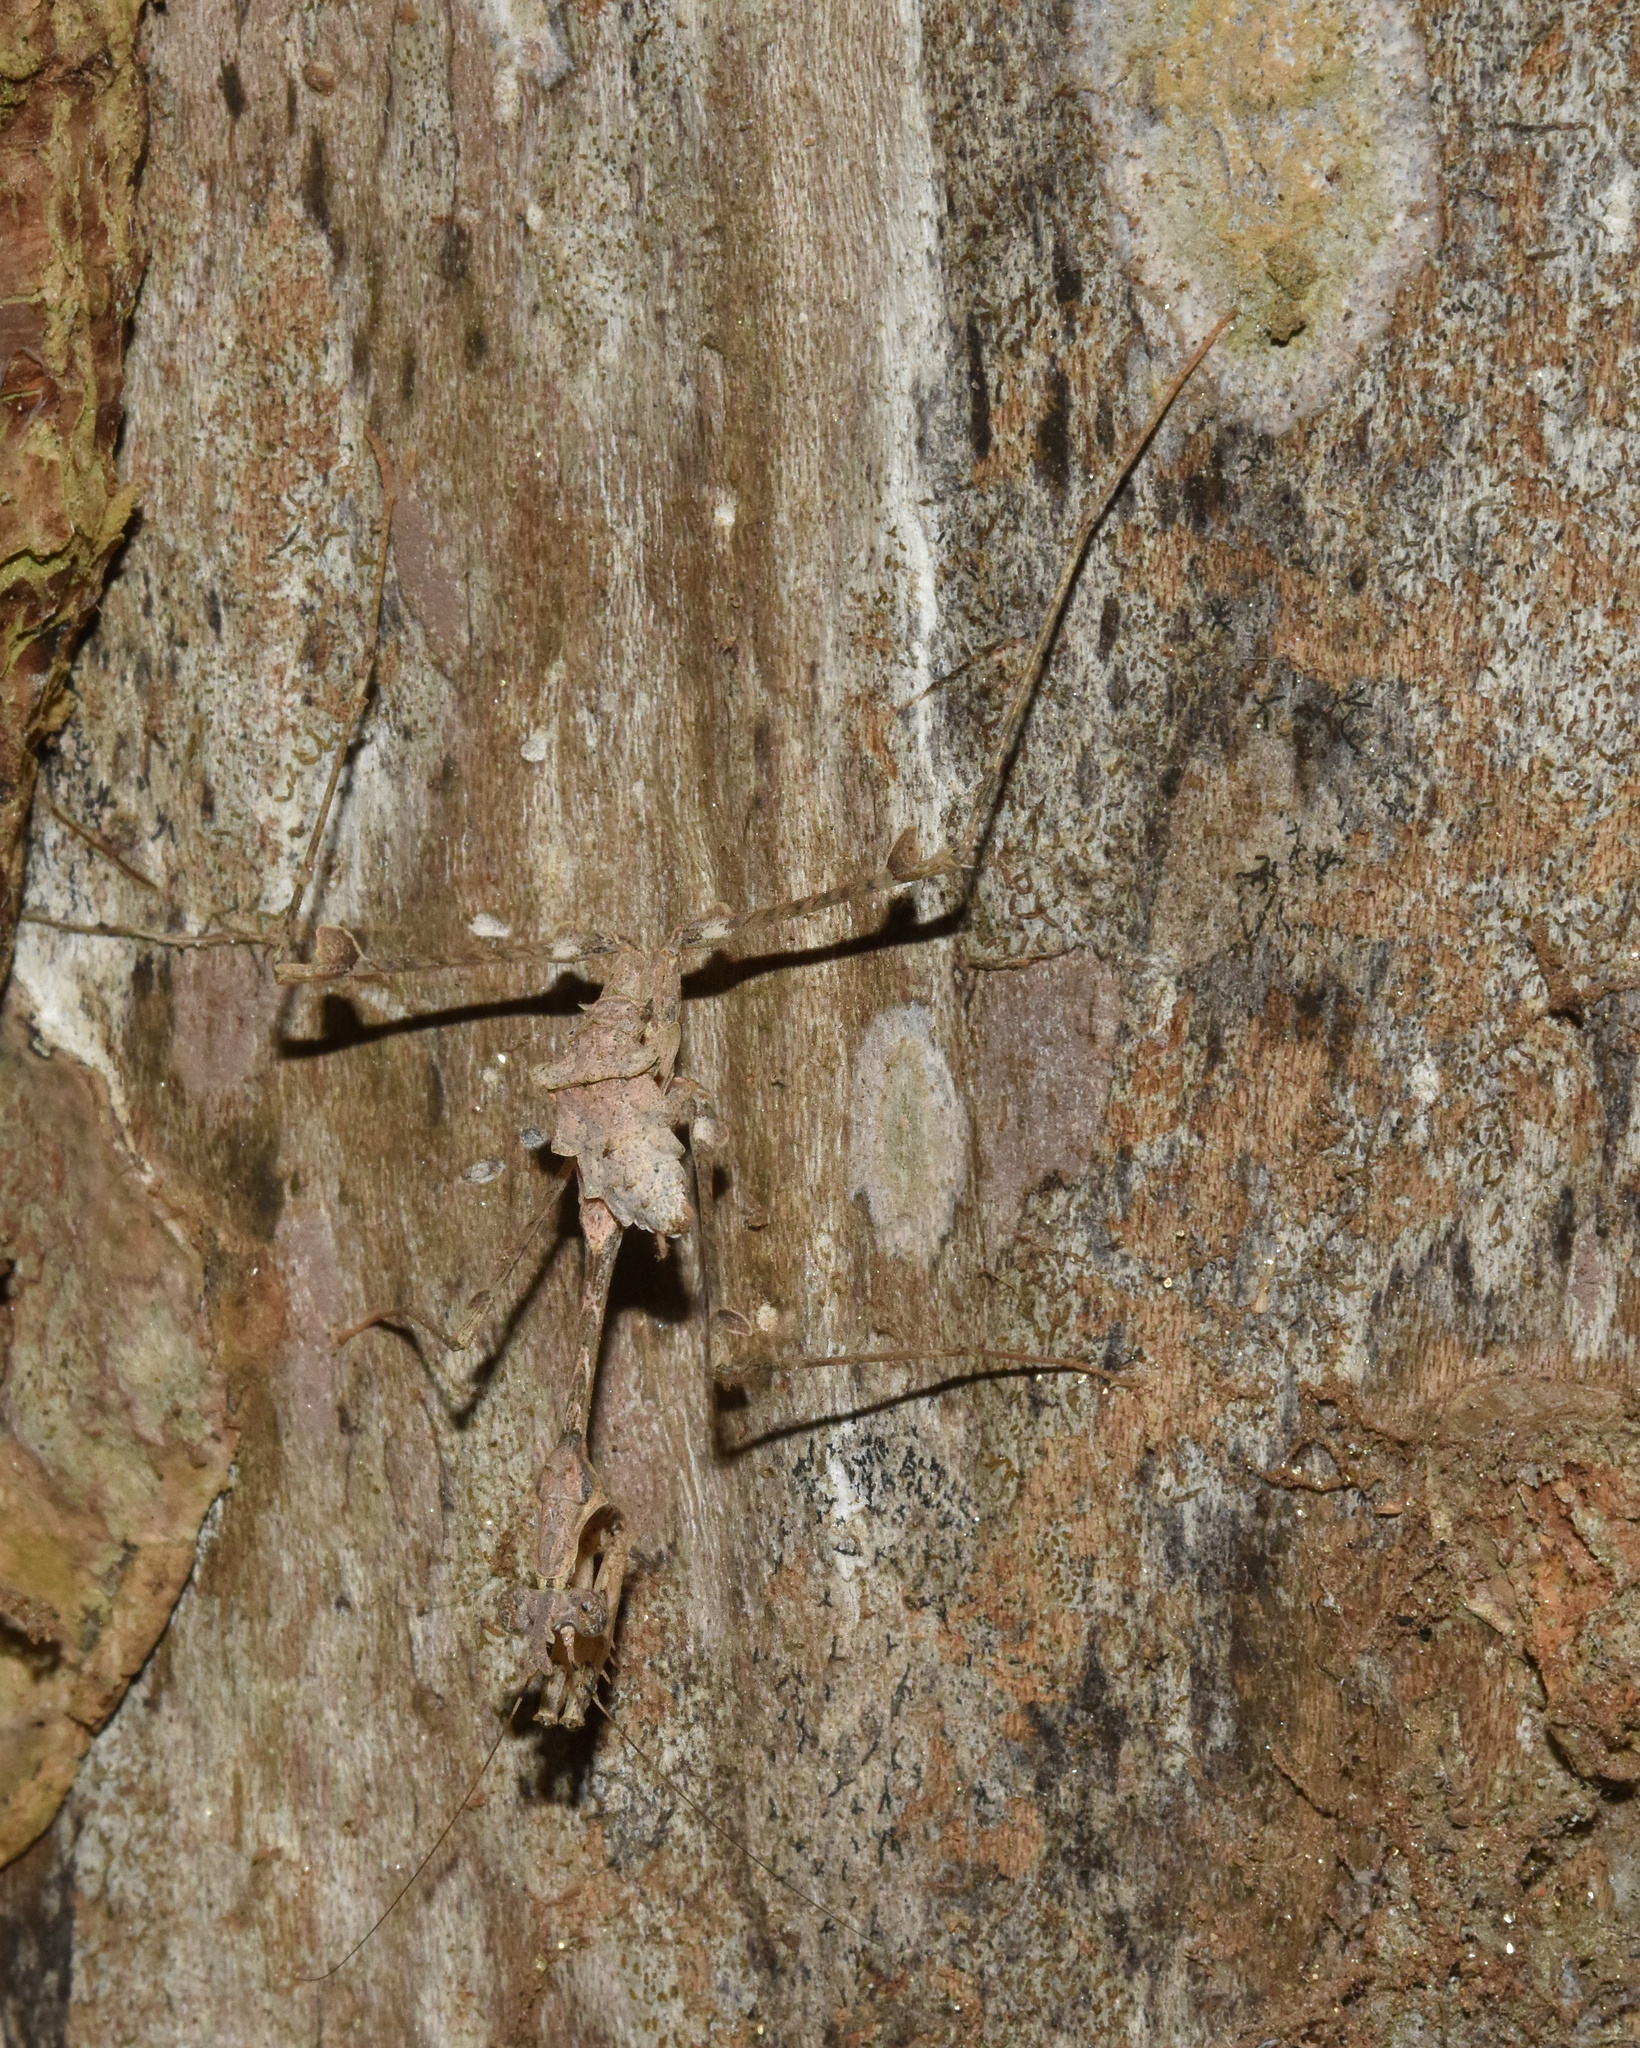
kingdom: Animalia
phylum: Arthropoda
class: Insecta
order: Mantodea
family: Hymenopodidae
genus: Sibylla
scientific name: Sibylla pretiosa
